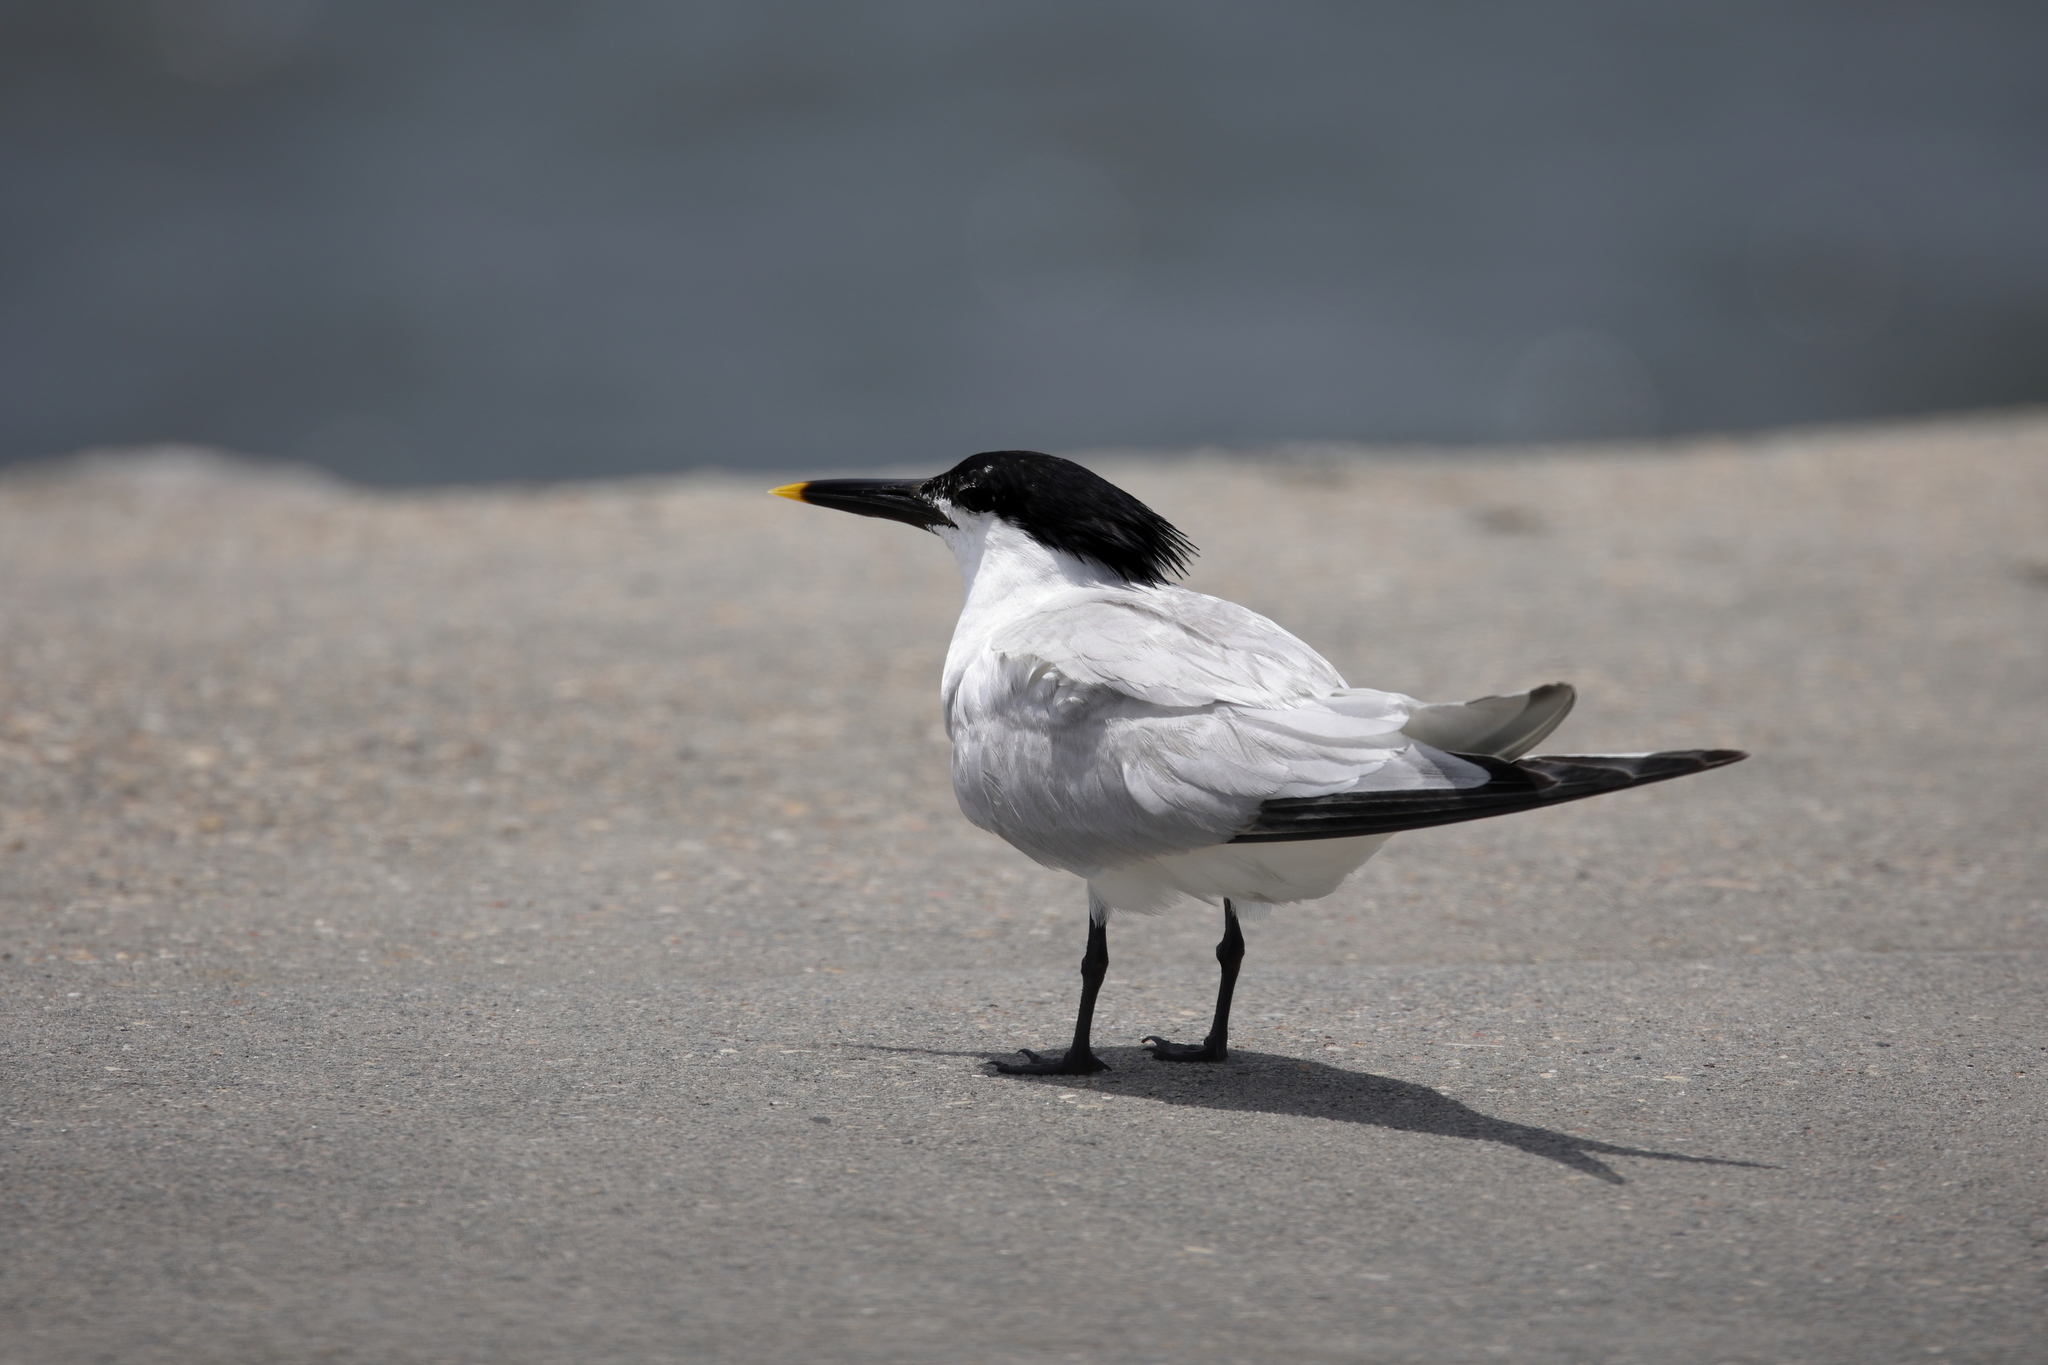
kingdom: Animalia
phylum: Chordata
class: Aves
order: Charadriiformes
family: Laridae
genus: Thalasseus
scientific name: Thalasseus sandvicensis
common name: Sandwich tern
